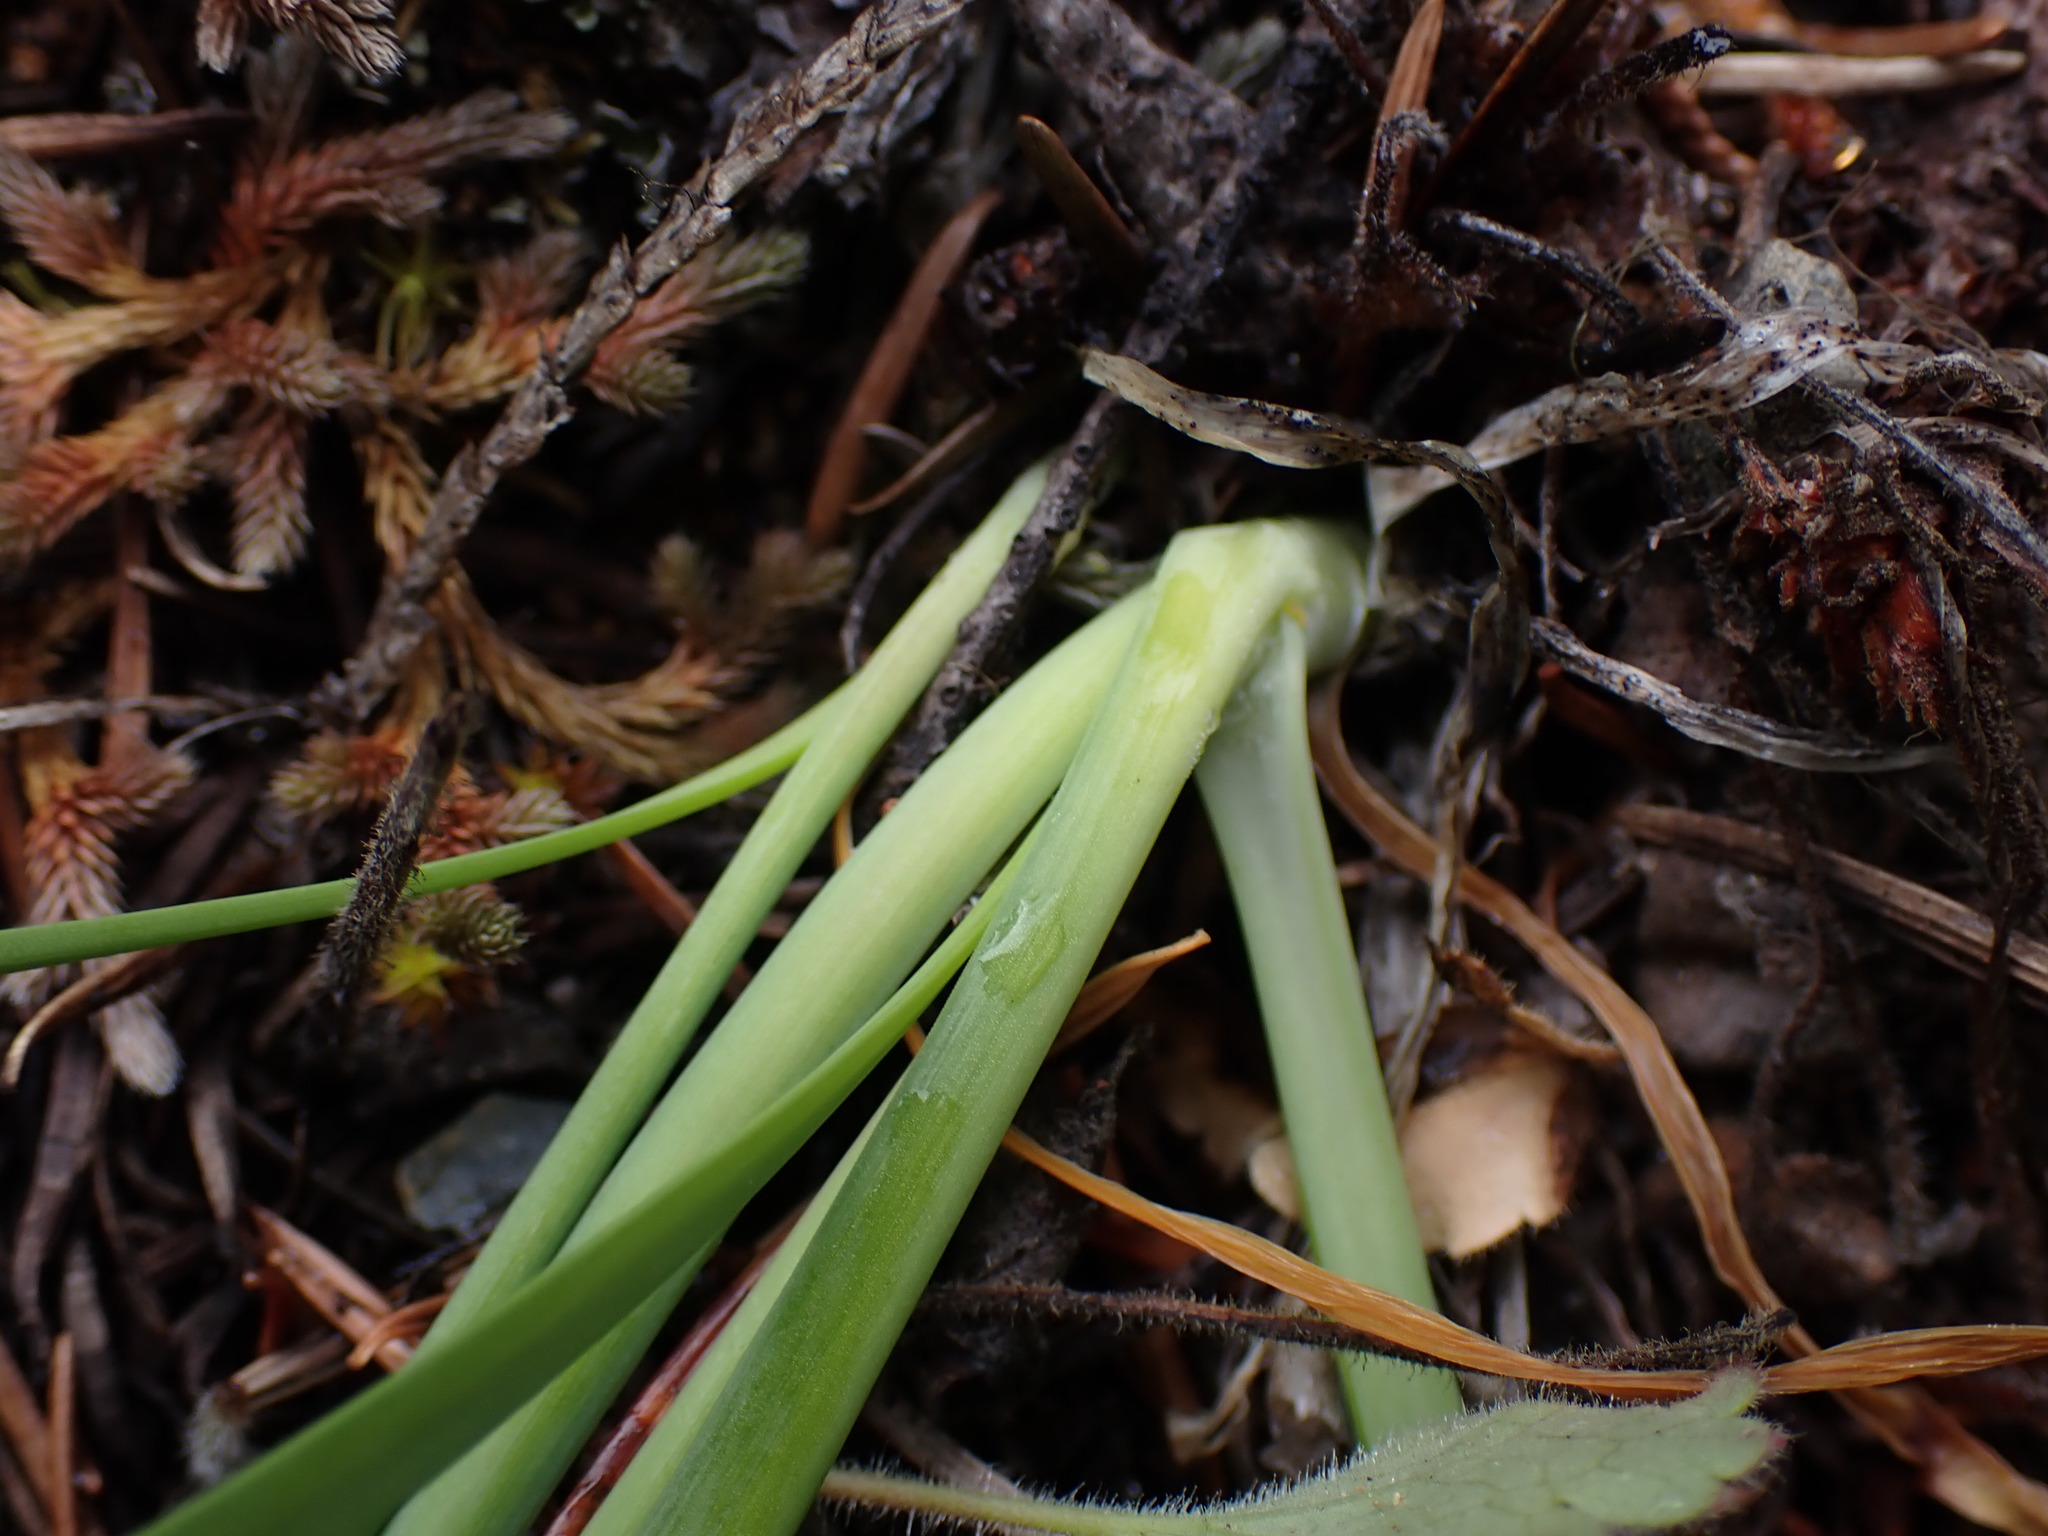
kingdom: Plantae
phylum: Tracheophyta
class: Liliopsida
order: Asparagales
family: Amaryllidaceae
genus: Allium
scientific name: Allium cernuum
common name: Nodding onion
